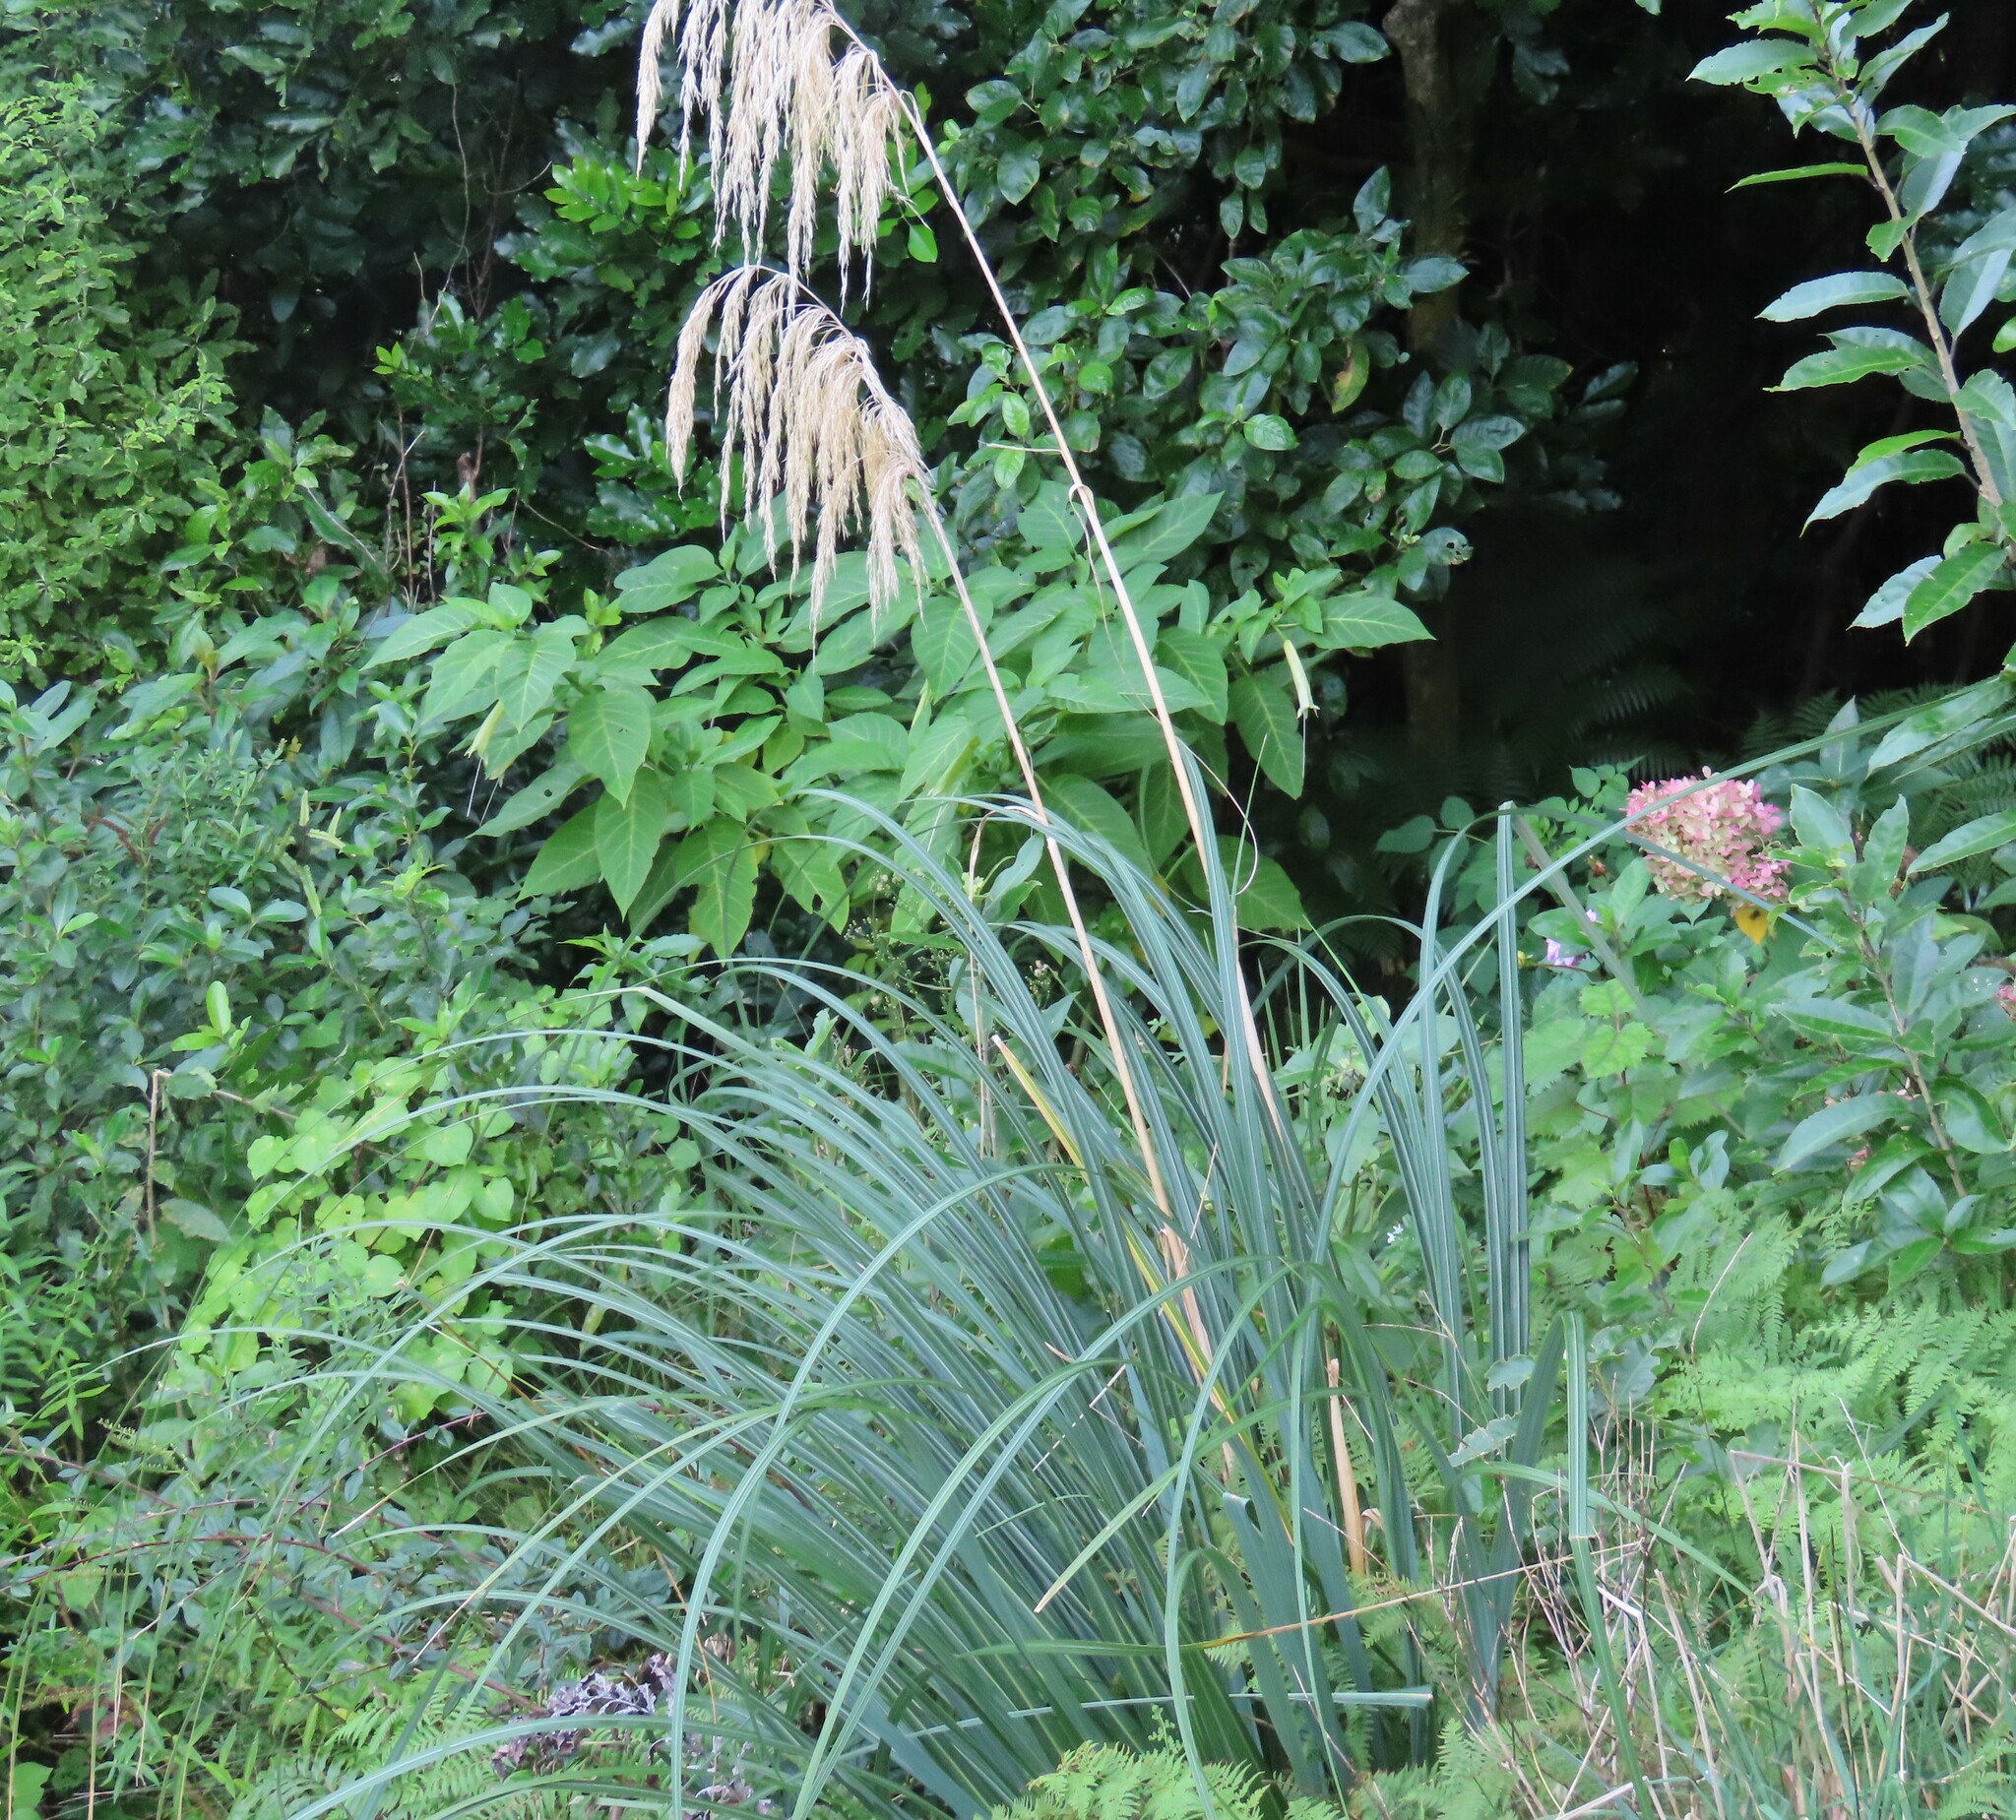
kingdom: Plantae
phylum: Tracheophyta
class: Liliopsida
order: Poales
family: Poaceae
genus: Austroderia
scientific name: Austroderia fulvida
